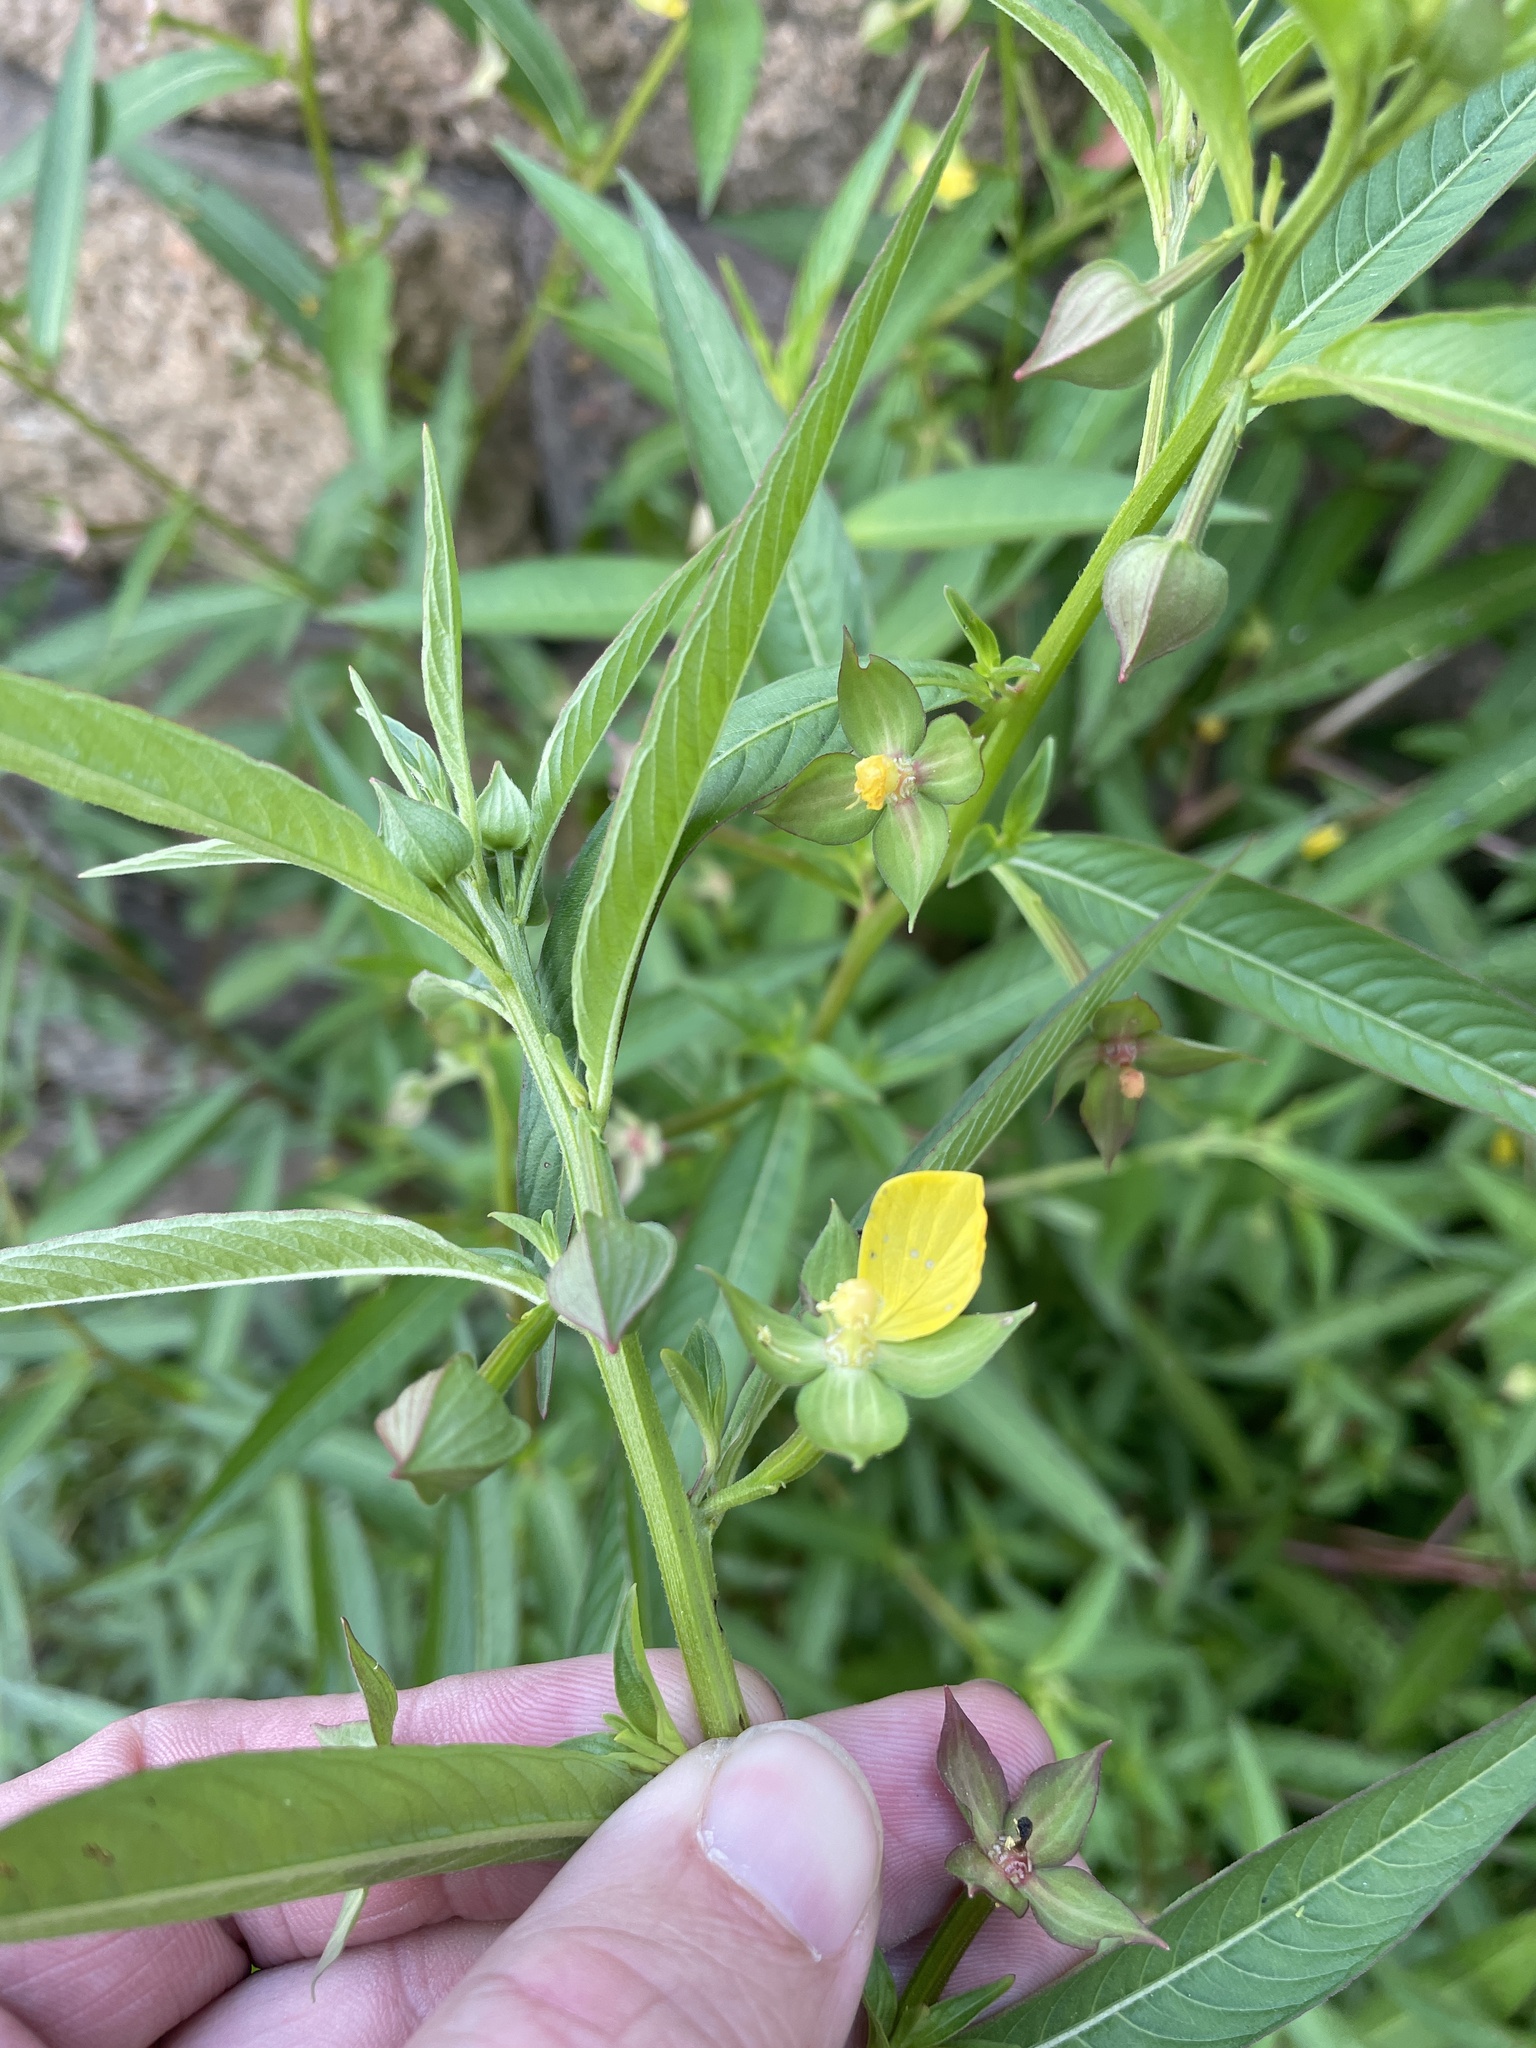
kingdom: Plantae
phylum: Tracheophyta
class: Magnoliopsida
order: Myrtales
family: Onagraceae
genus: Ludwigia
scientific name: Ludwigia octovalvis
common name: Water-primrose
